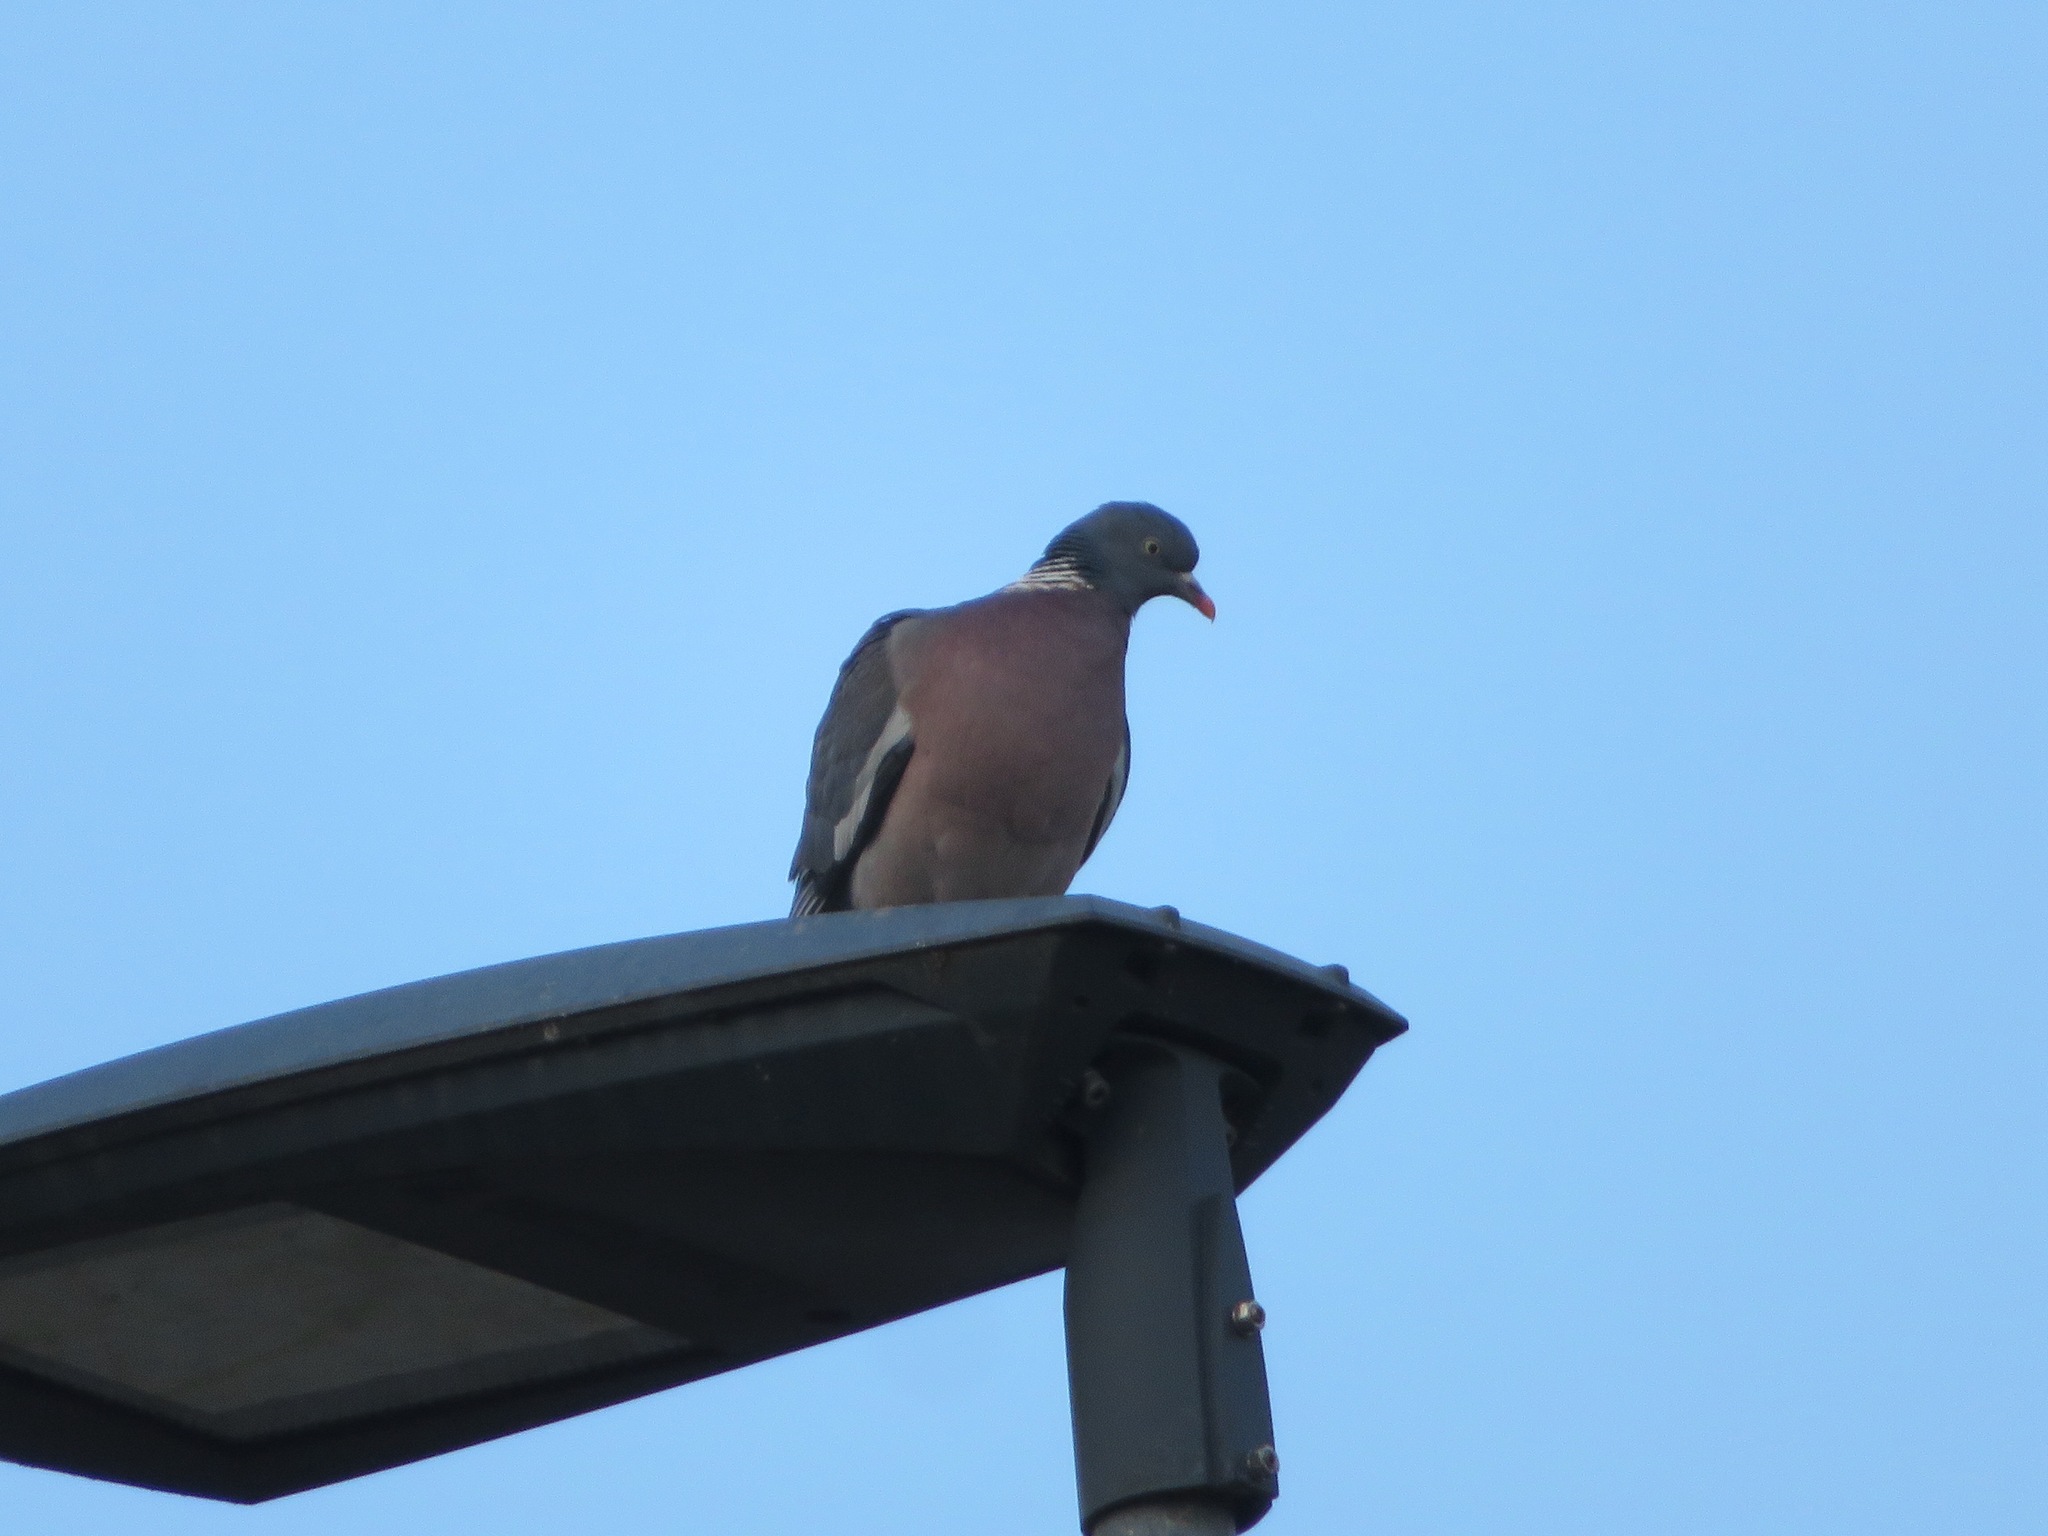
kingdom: Animalia
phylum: Chordata
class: Aves
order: Columbiformes
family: Columbidae
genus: Columba
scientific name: Columba palumbus
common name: Common wood pigeon
